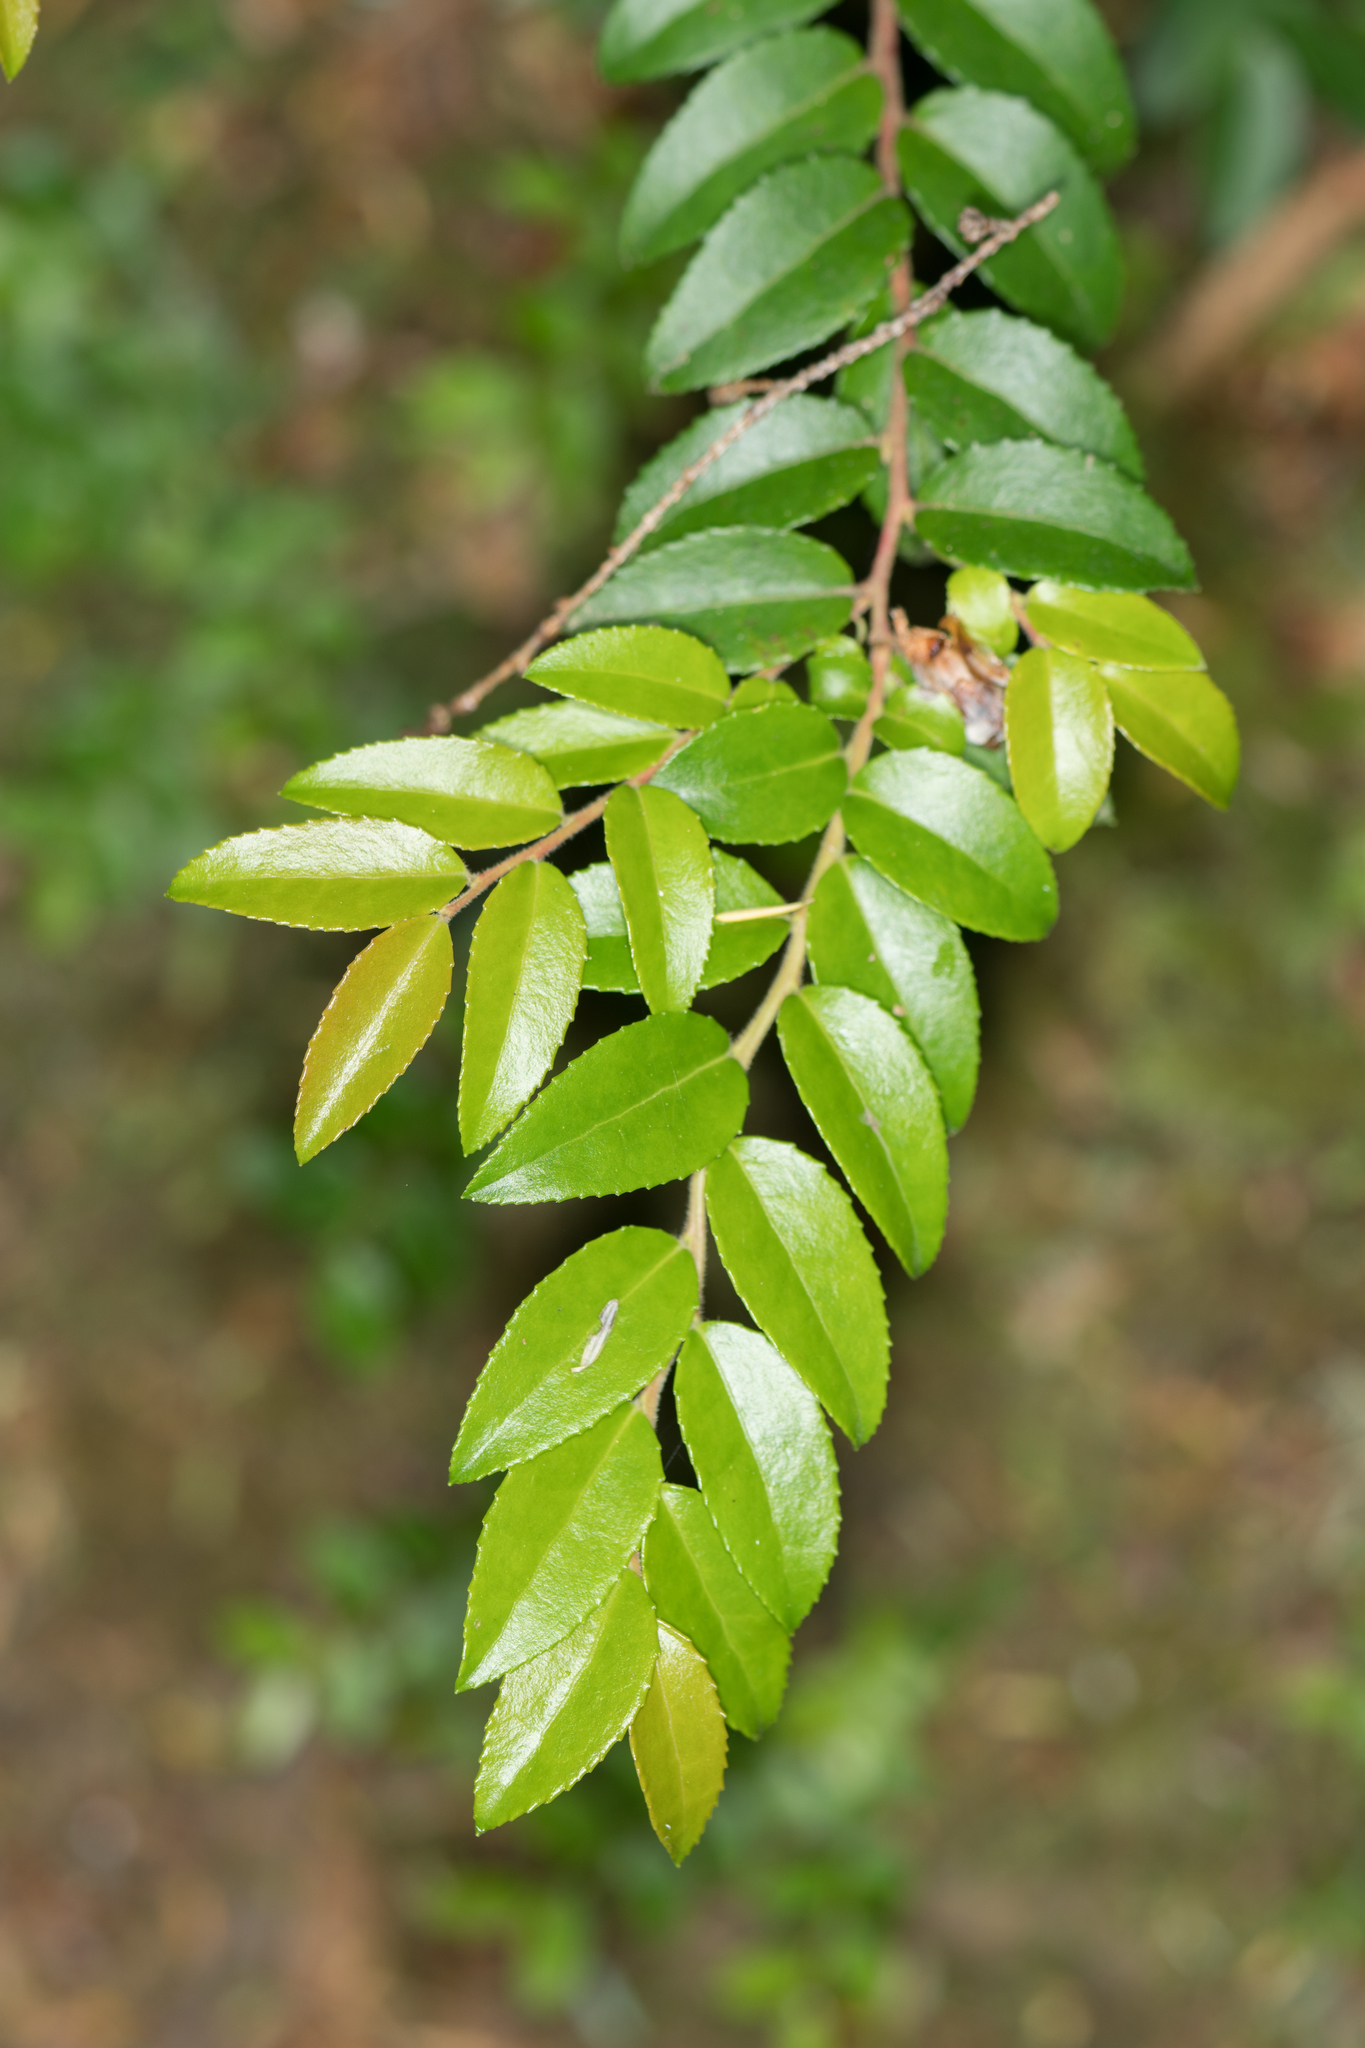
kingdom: Plantae
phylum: Tracheophyta
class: Magnoliopsida
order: Ericales
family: Ericaceae
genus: Vaccinium
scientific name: Vaccinium ovatum
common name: California-huckleberry
